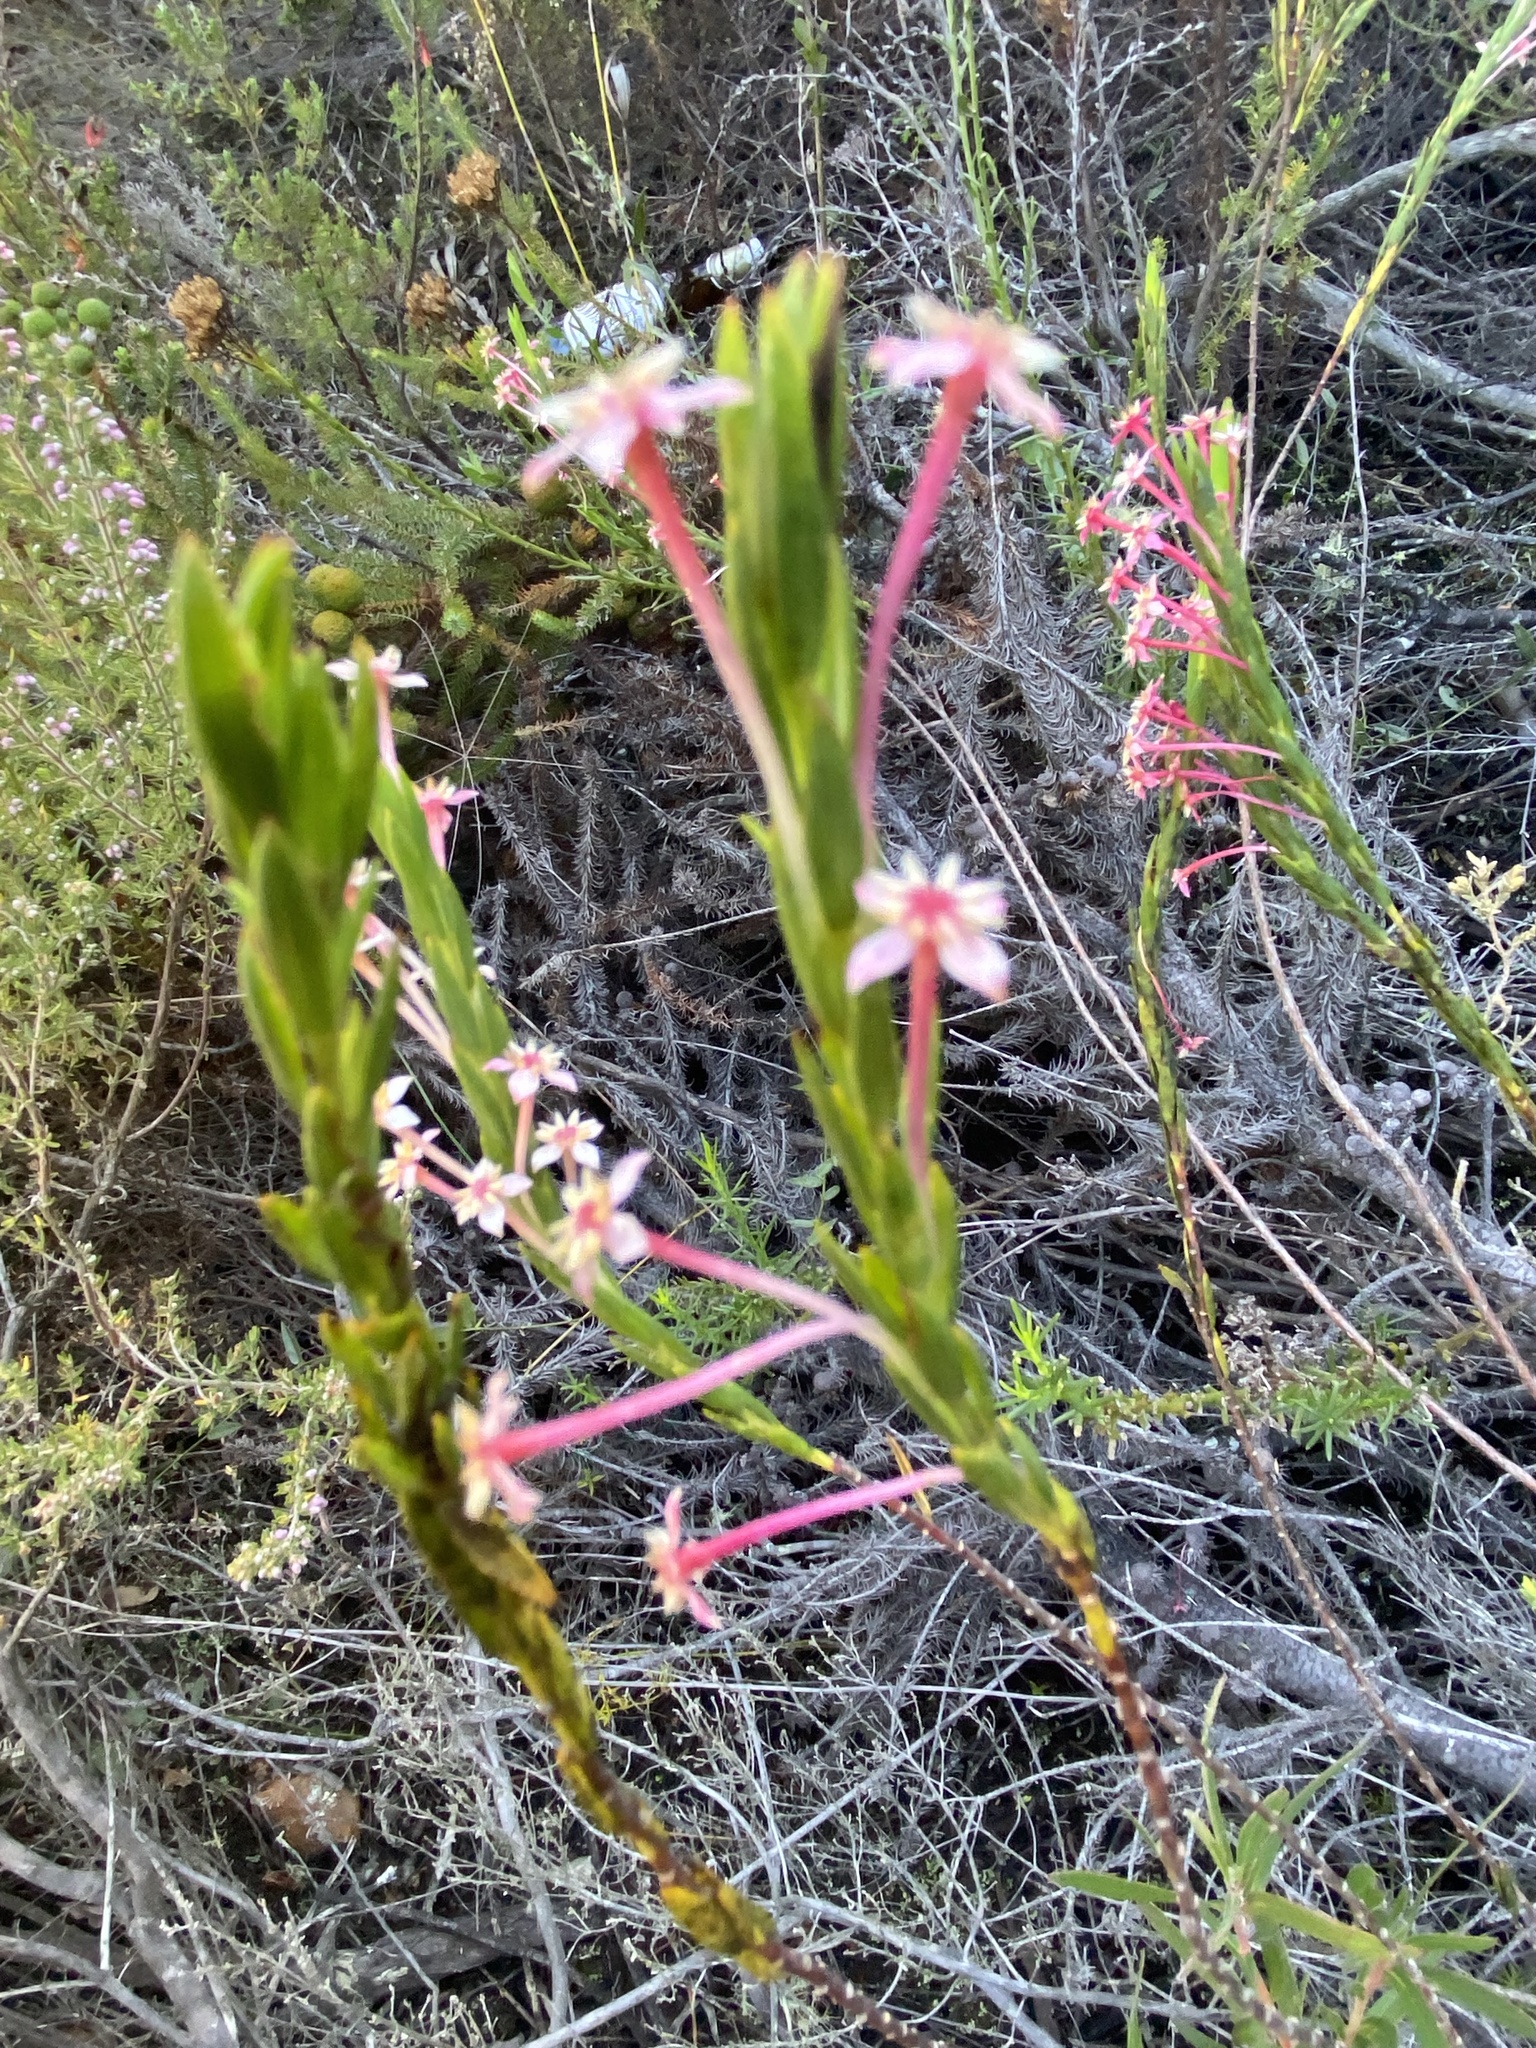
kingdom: Plantae
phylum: Tracheophyta
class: Magnoliopsida
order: Malvales
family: Thymelaeaceae
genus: Struthiola
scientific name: Struthiola ciliata
